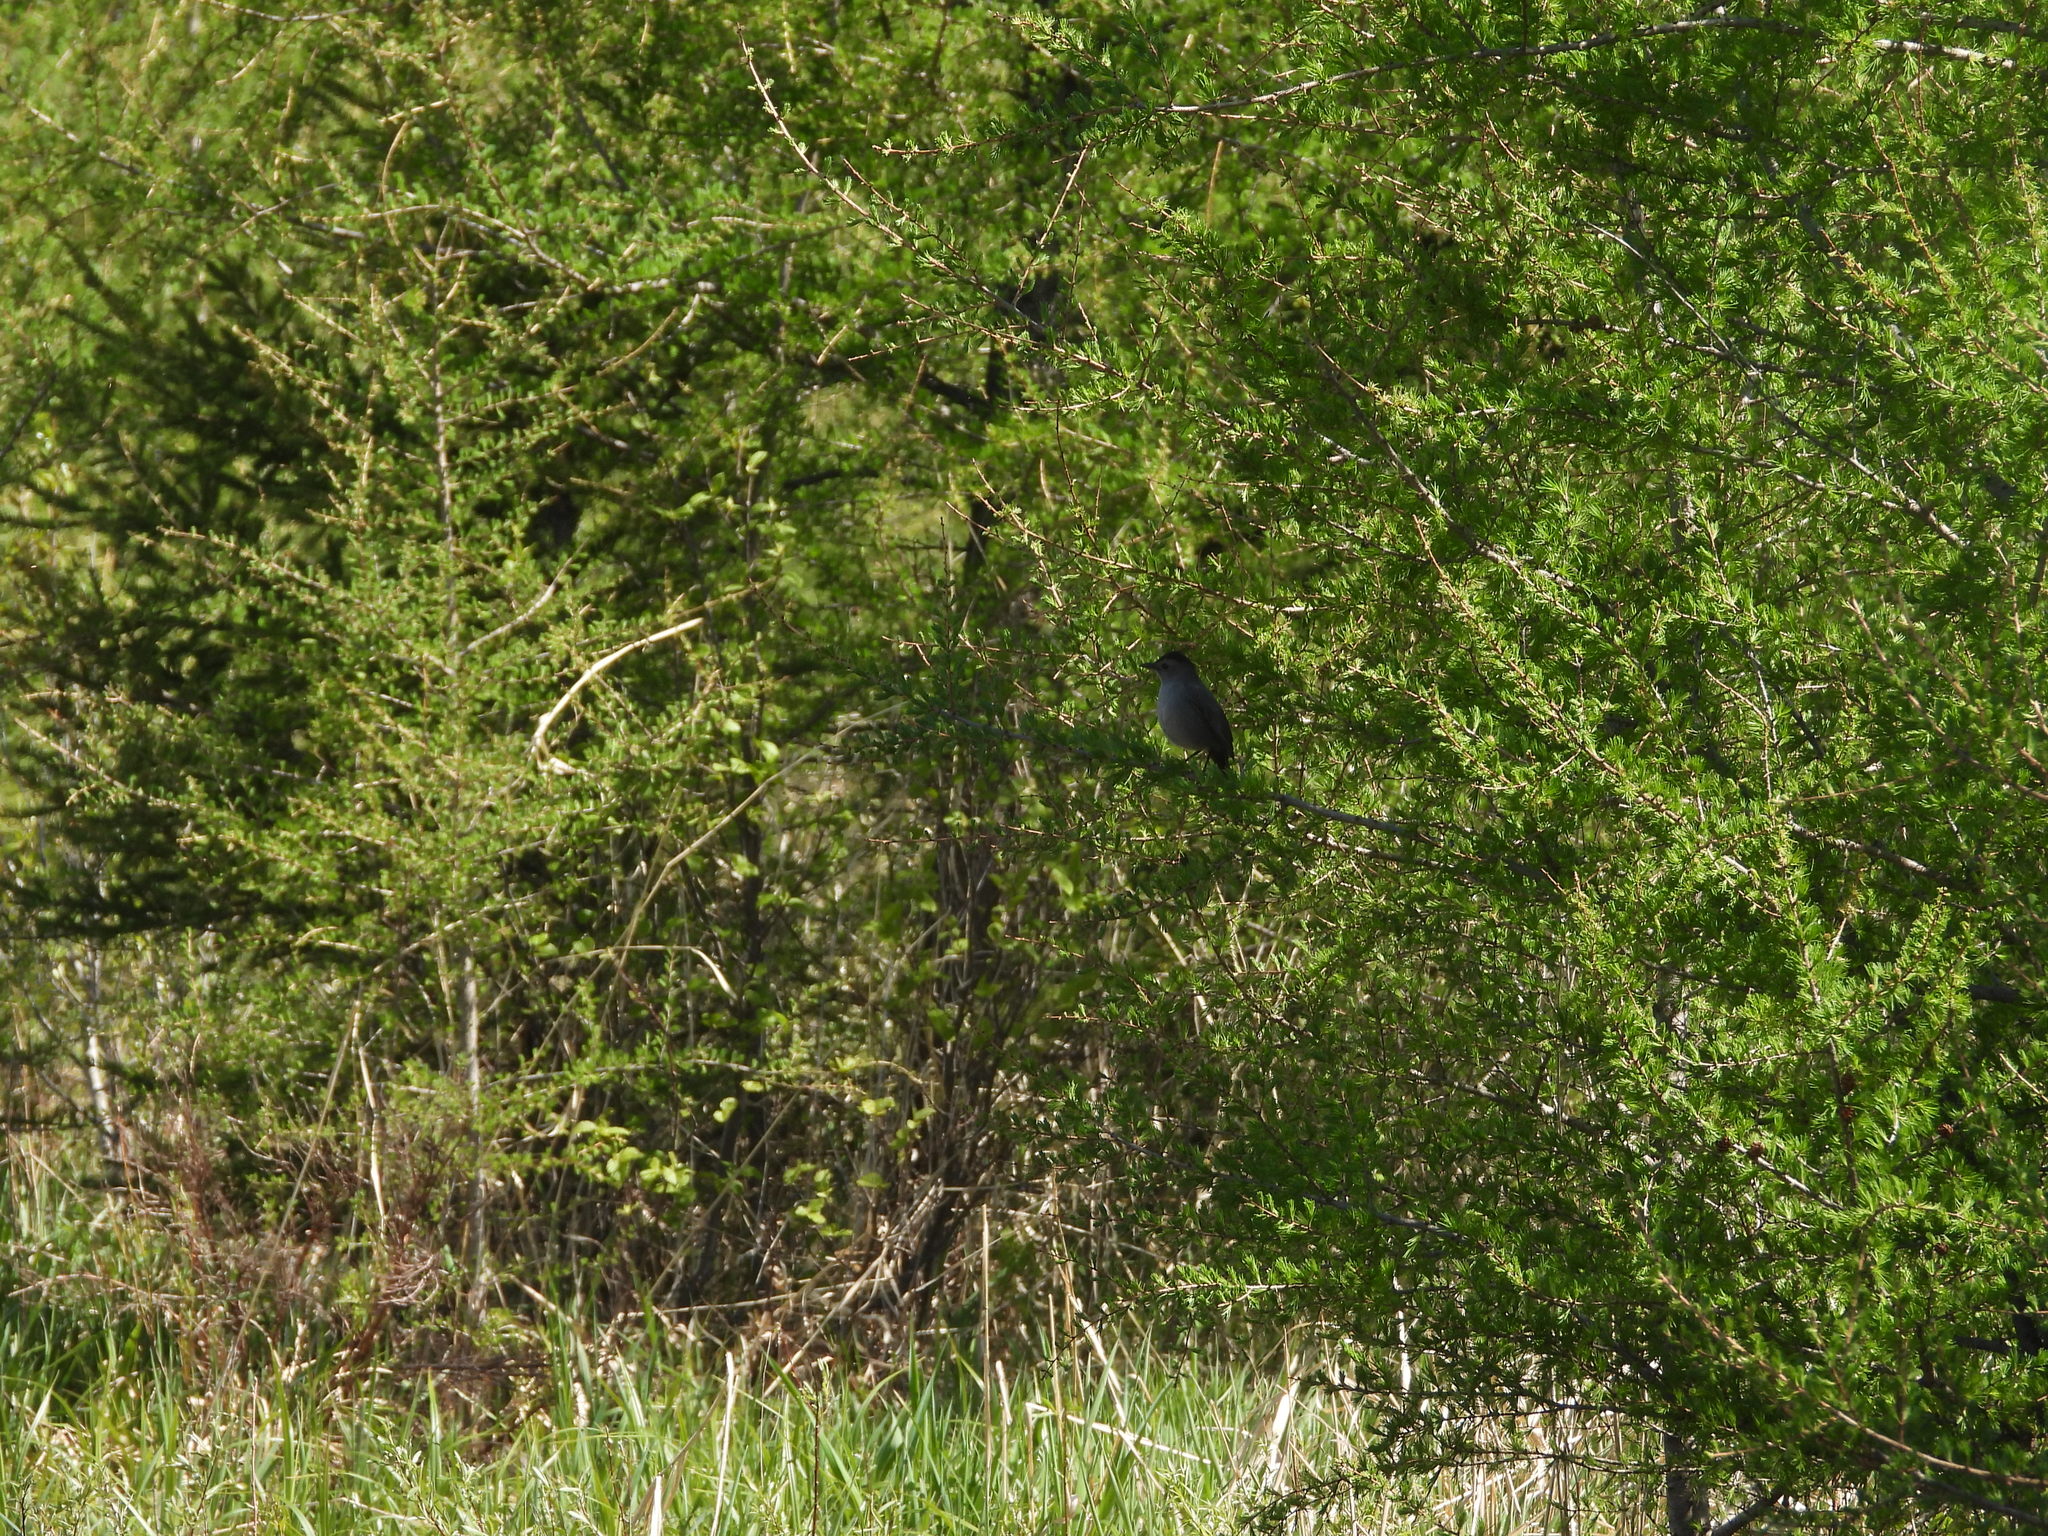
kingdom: Animalia
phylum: Chordata
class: Aves
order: Passeriformes
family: Mimidae
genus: Dumetella
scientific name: Dumetella carolinensis
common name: Gray catbird
